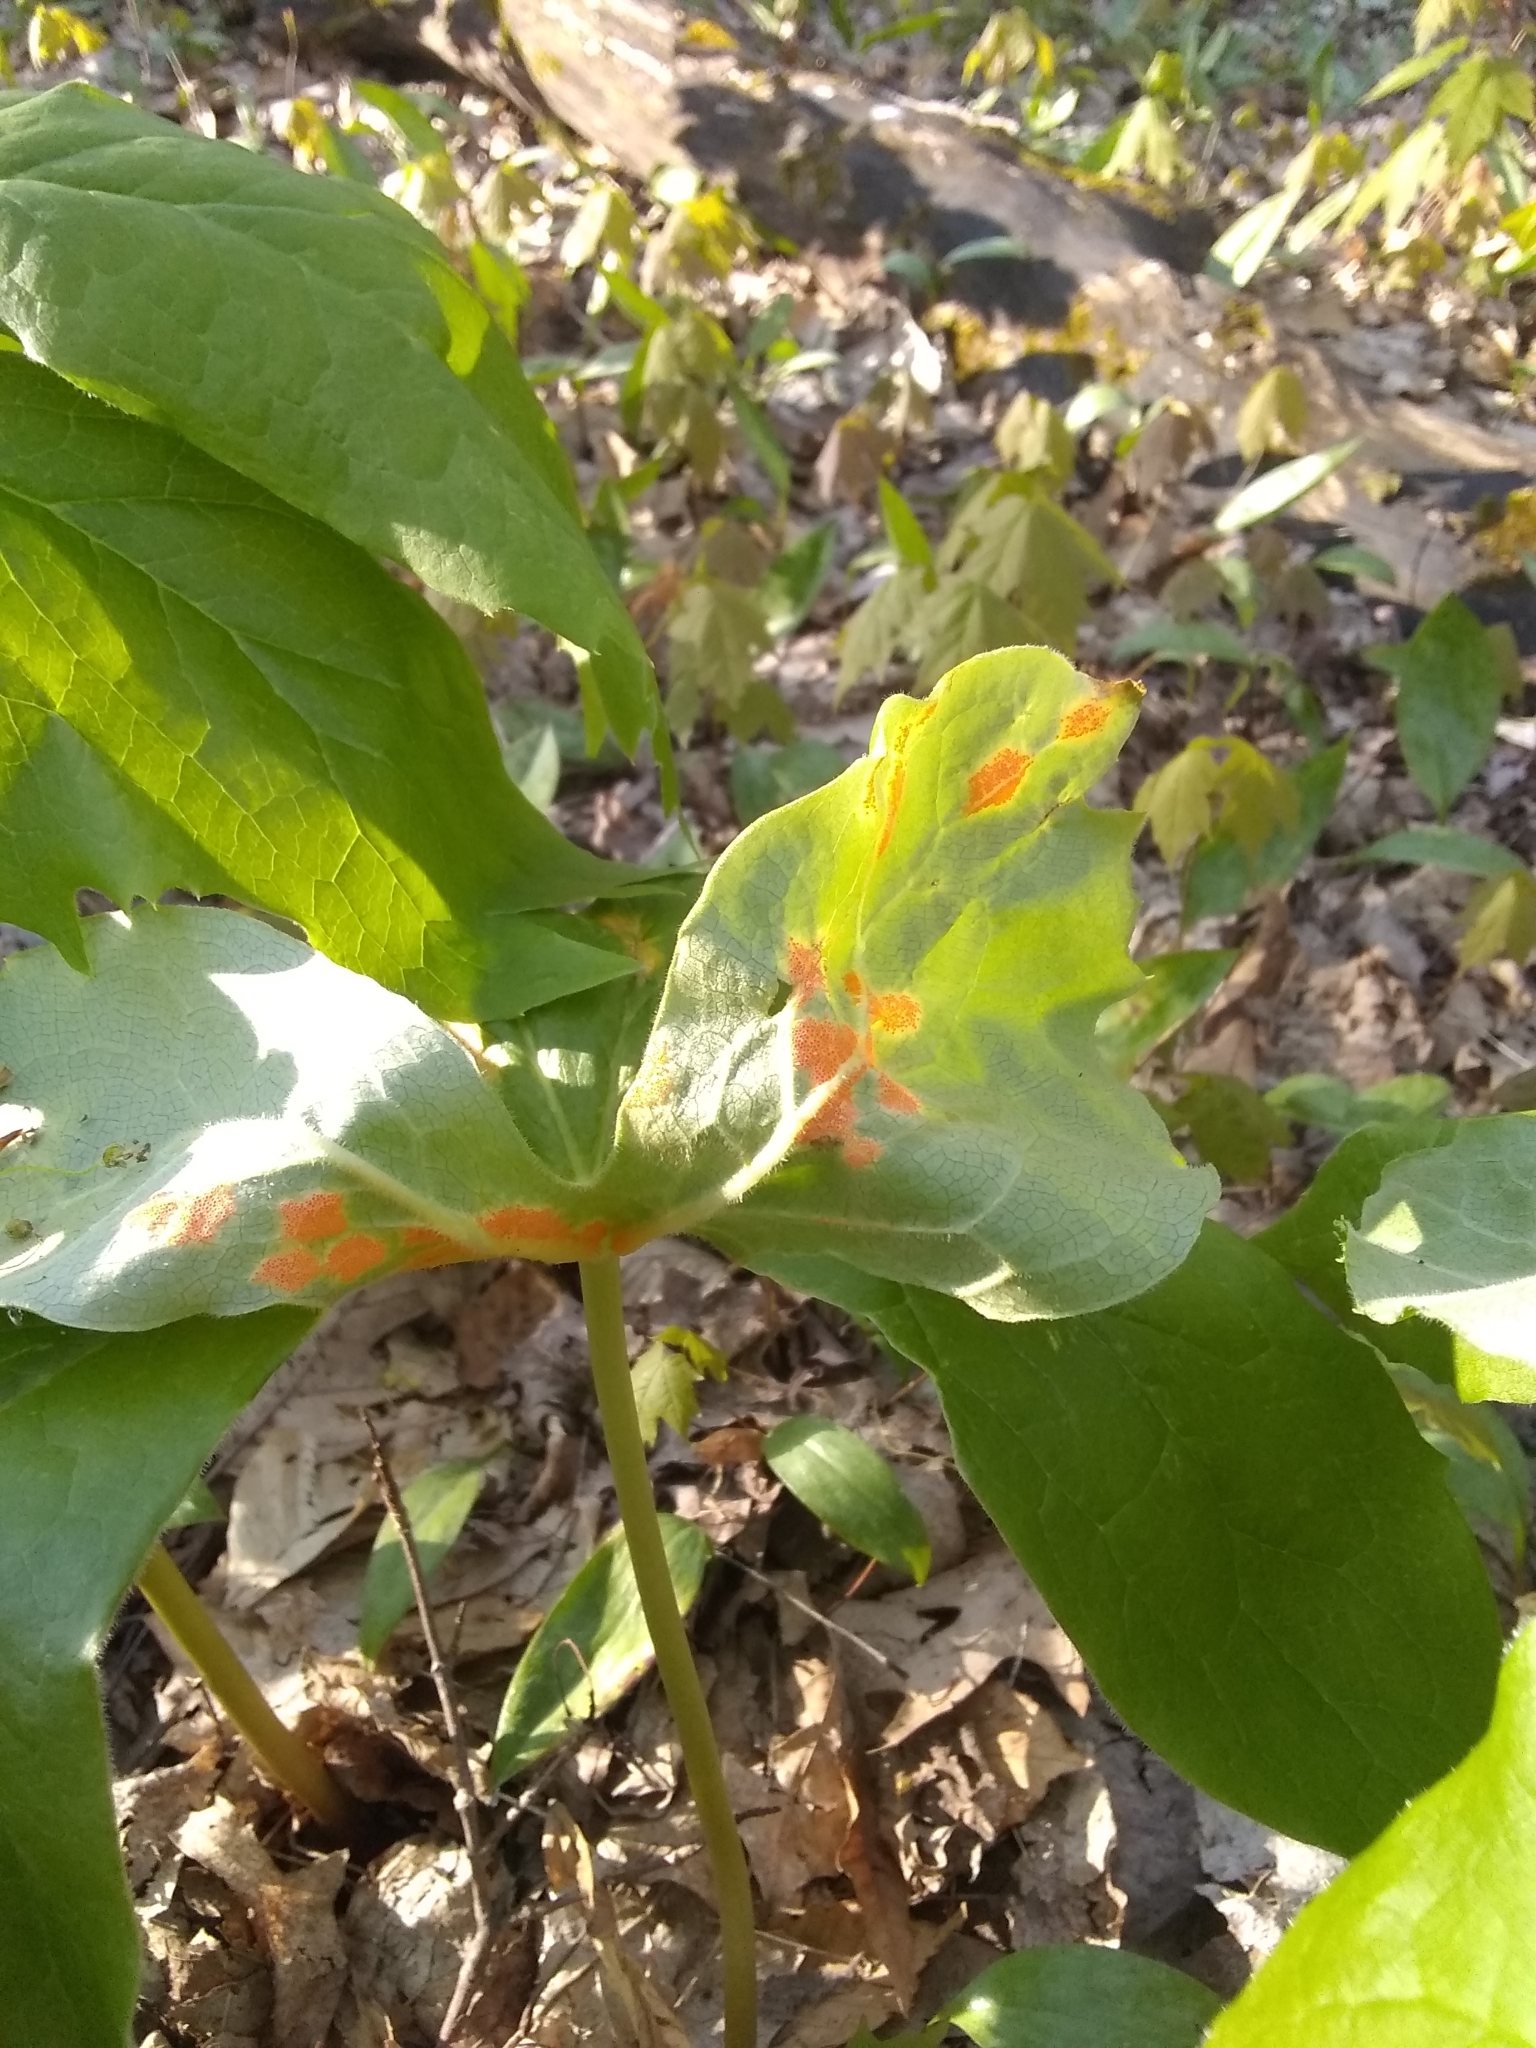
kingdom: Fungi
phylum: Basidiomycota
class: Pucciniomycetes
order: Pucciniales
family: Pucciniaceae
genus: Puccinia
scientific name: Puccinia podophylli
